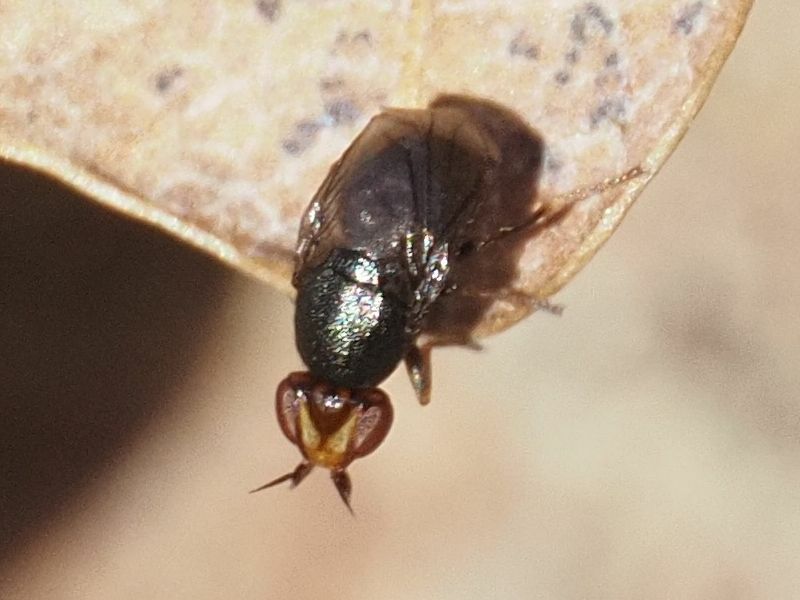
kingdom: Animalia
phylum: Arthropoda
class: Insecta
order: Diptera
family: Chloropidae
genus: Camarota
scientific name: Camarota curvipennis
